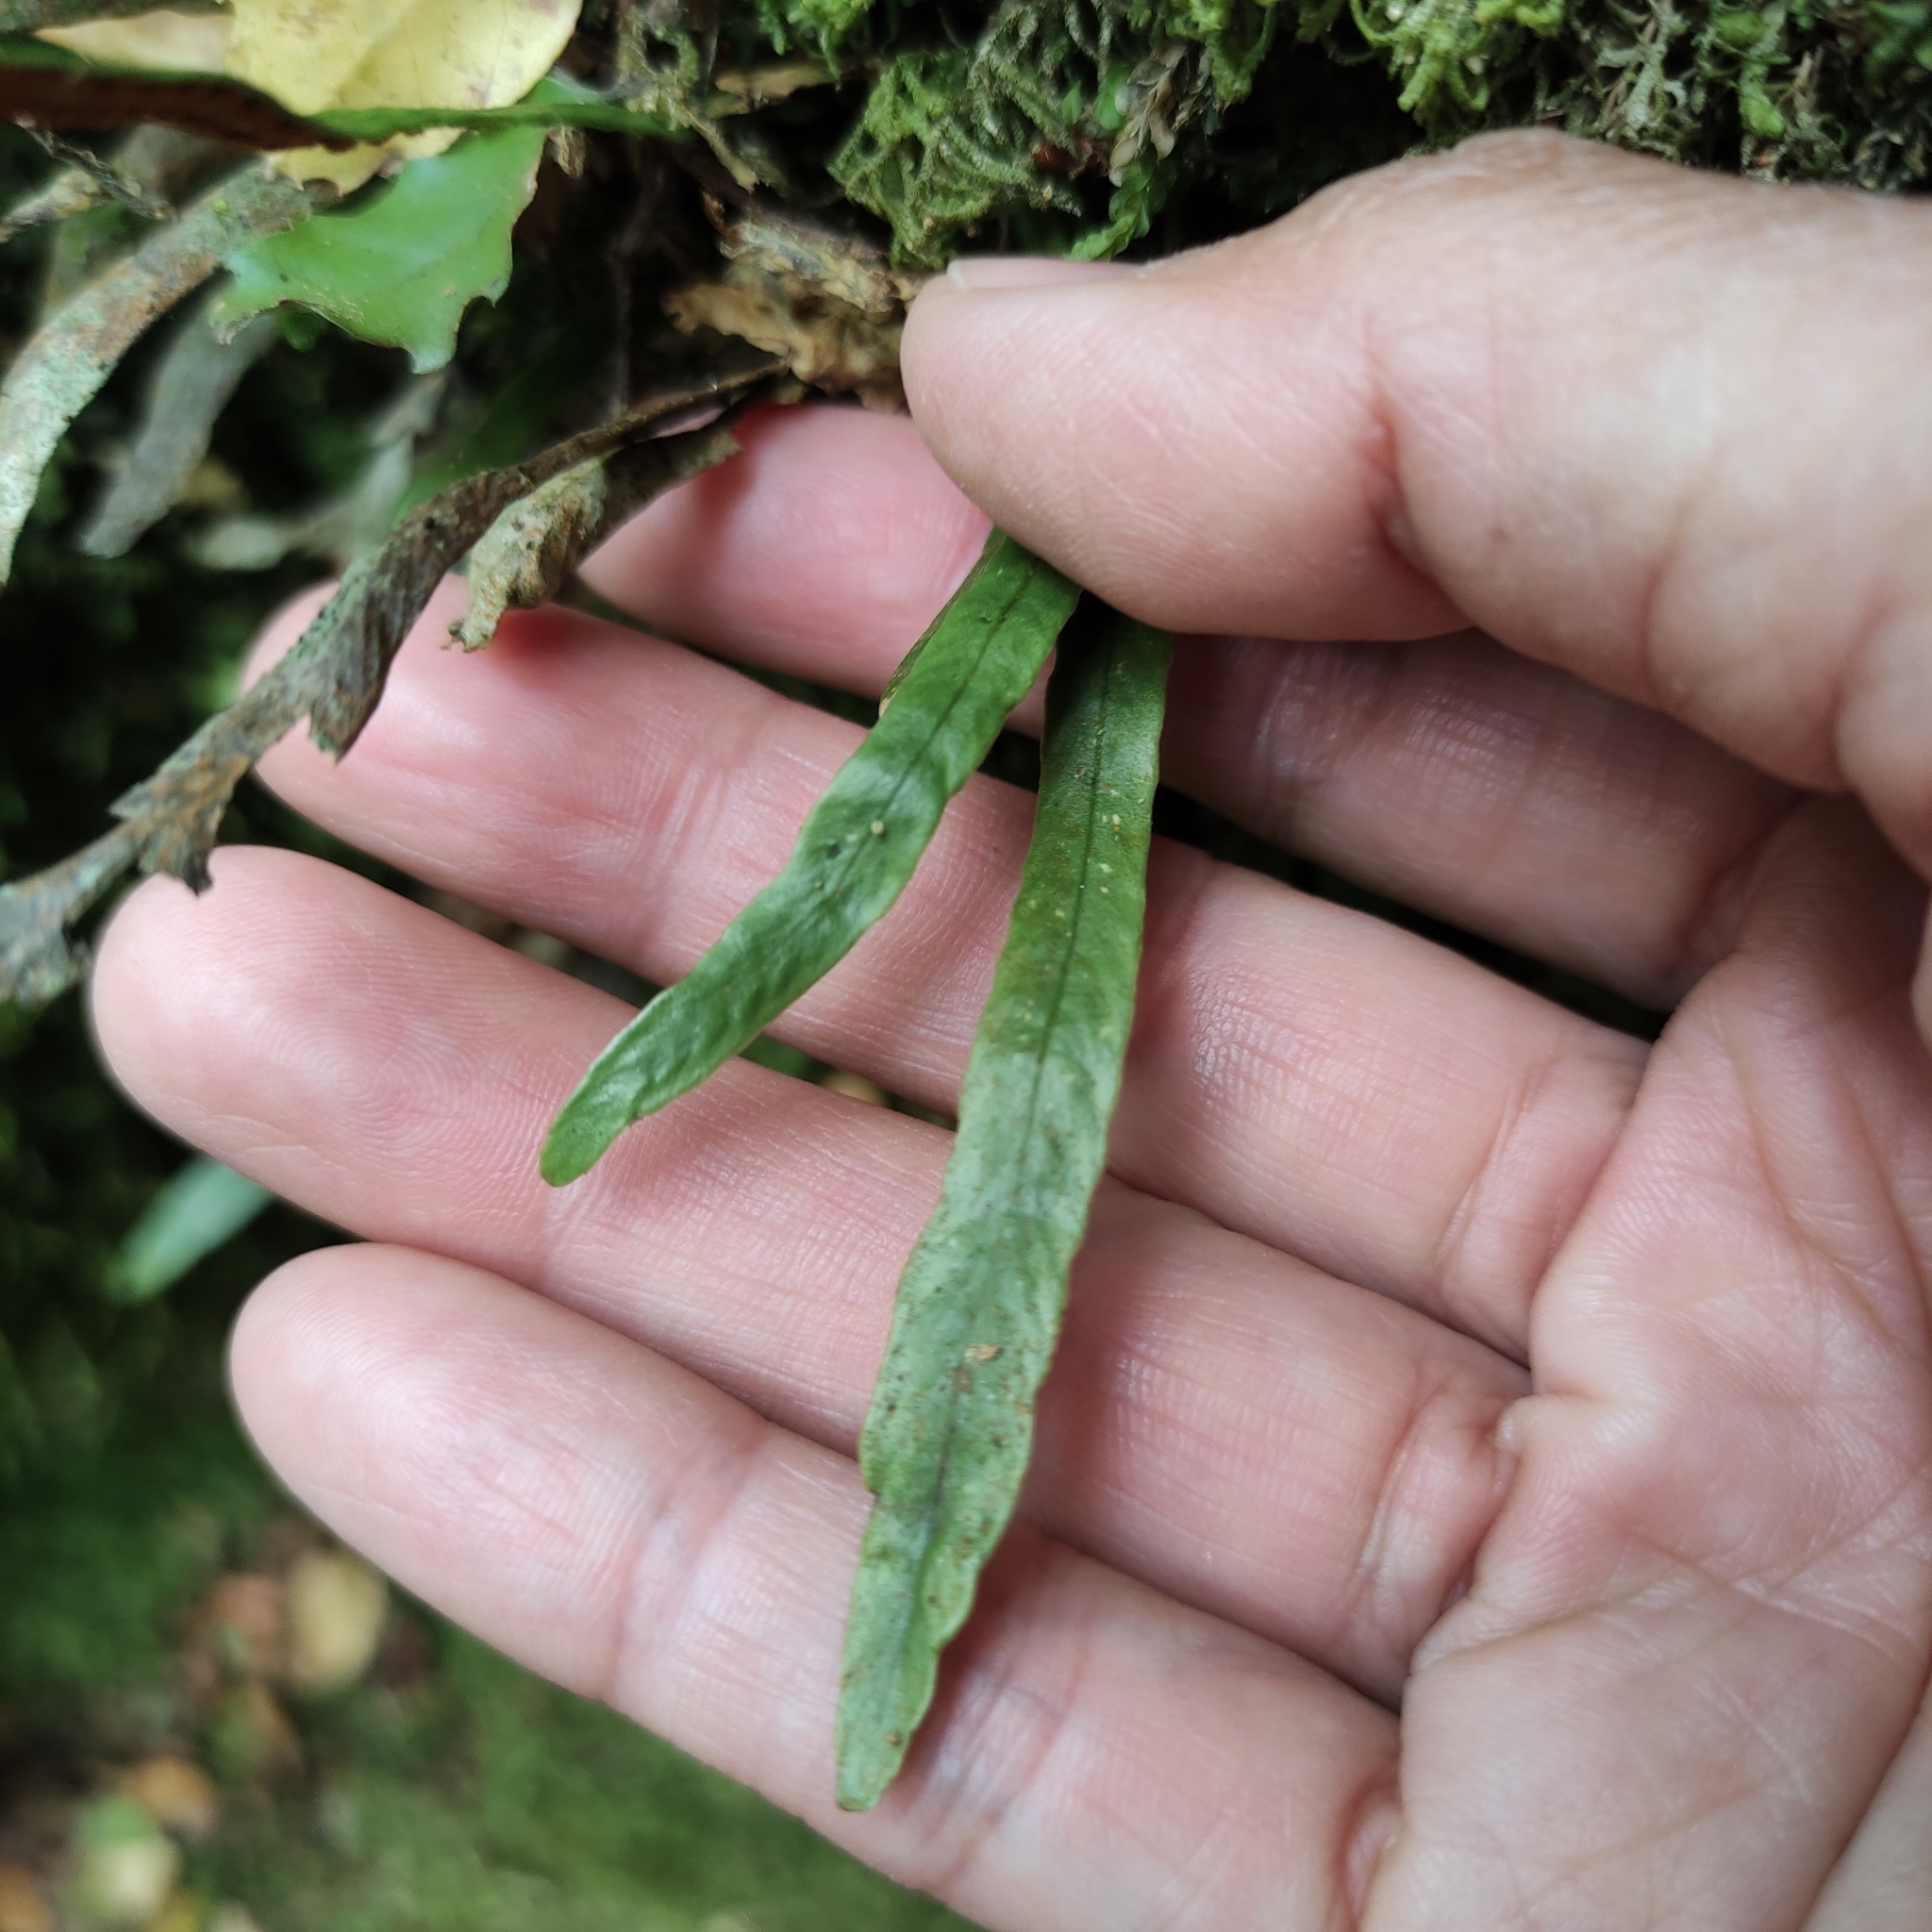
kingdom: Plantae
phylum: Tracheophyta
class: Polypodiopsida
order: Polypodiales
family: Polypodiaceae
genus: Notogrammitis
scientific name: Notogrammitis billardierei
